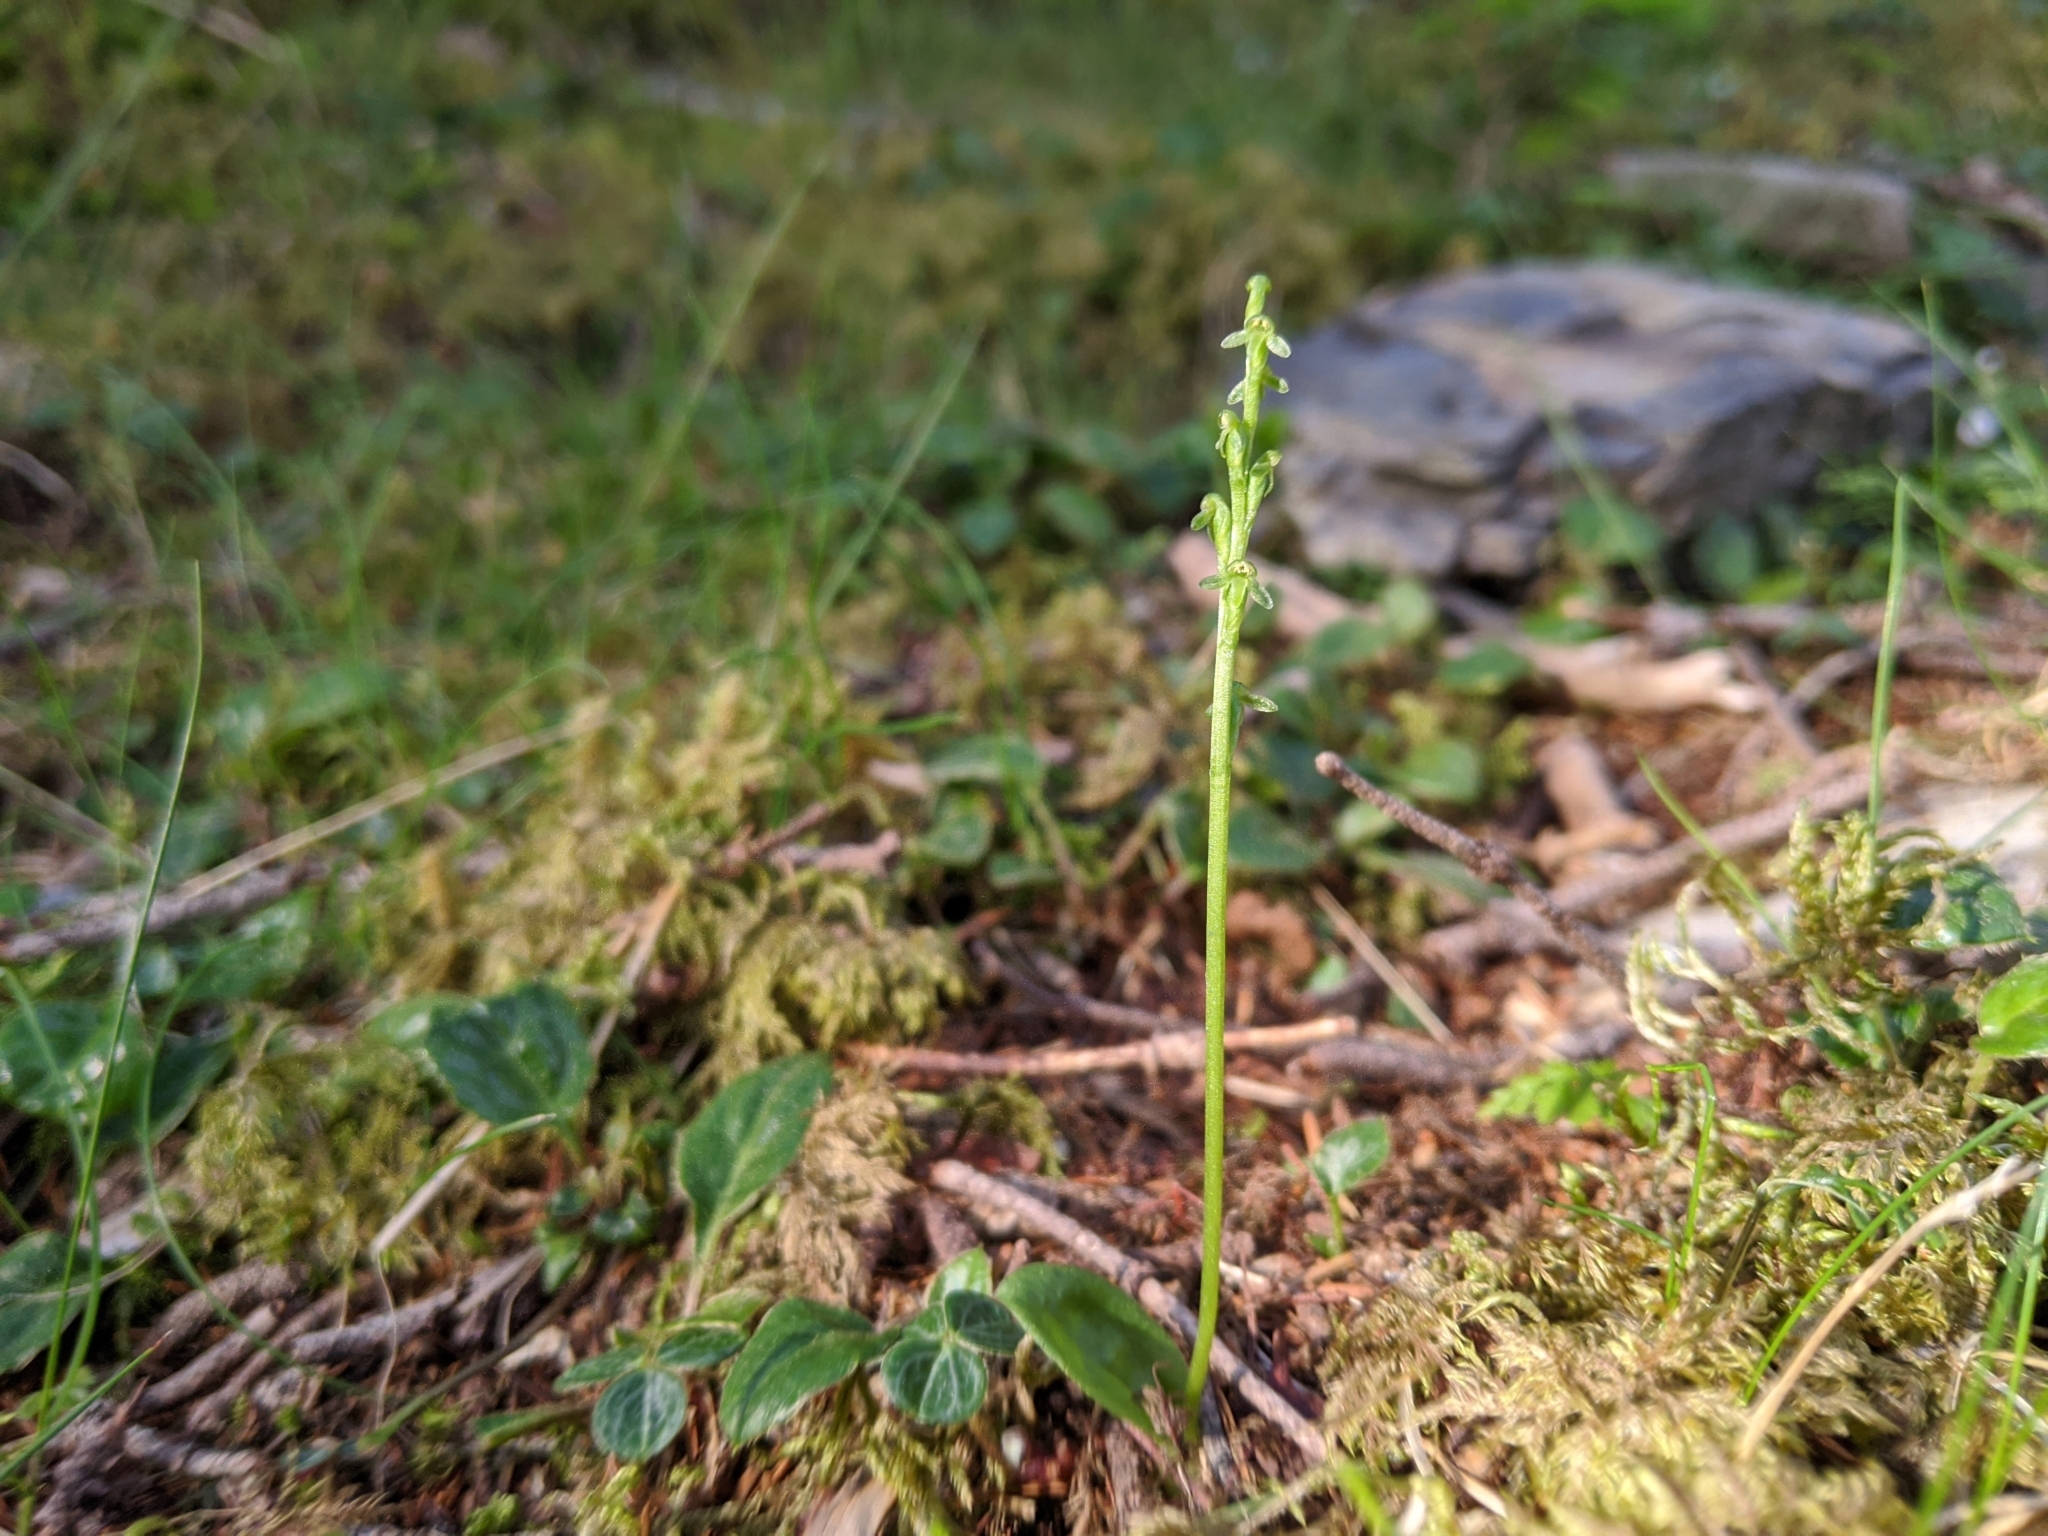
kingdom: Plantae
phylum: Tracheophyta
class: Liliopsida
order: Asparagales
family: Orchidaceae
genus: Herminium
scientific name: Herminium pusillum
